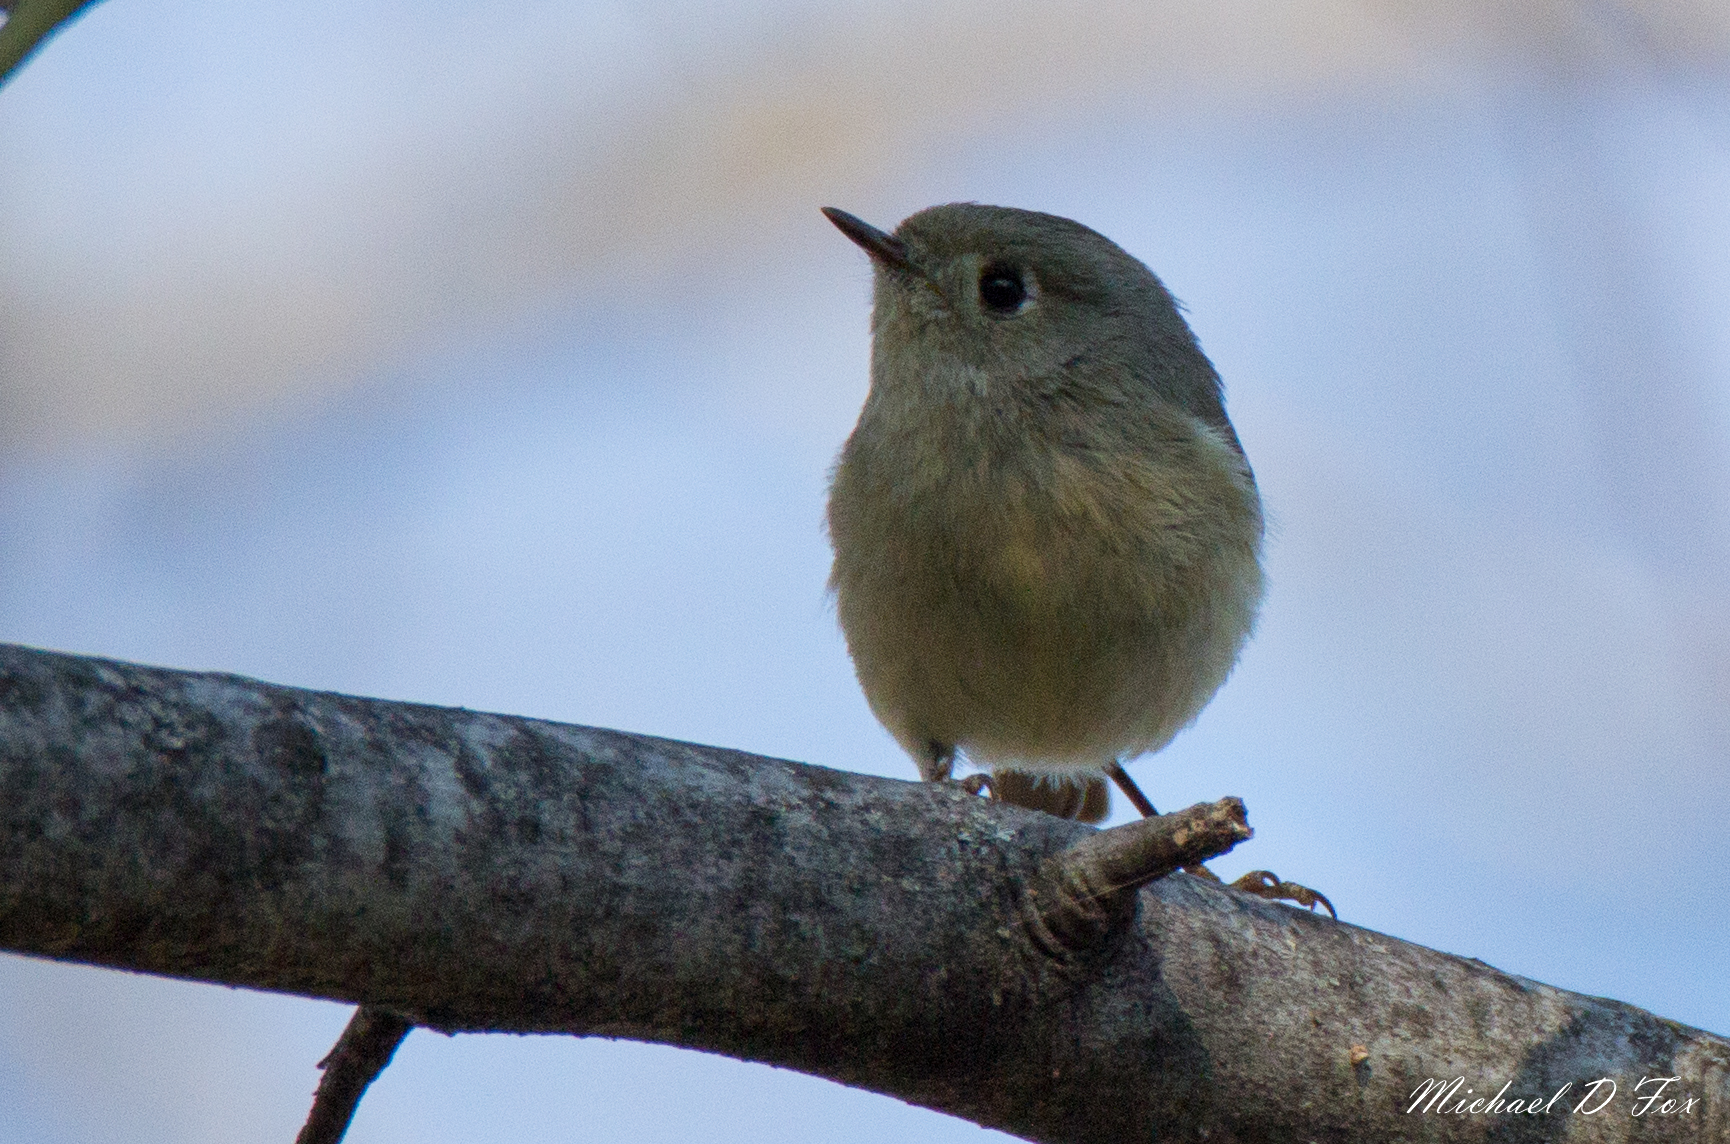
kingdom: Animalia
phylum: Chordata
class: Aves
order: Passeriformes
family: Regulidae
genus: Regulus
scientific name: Regulus calendula
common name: Ruby-crowned kinglet
